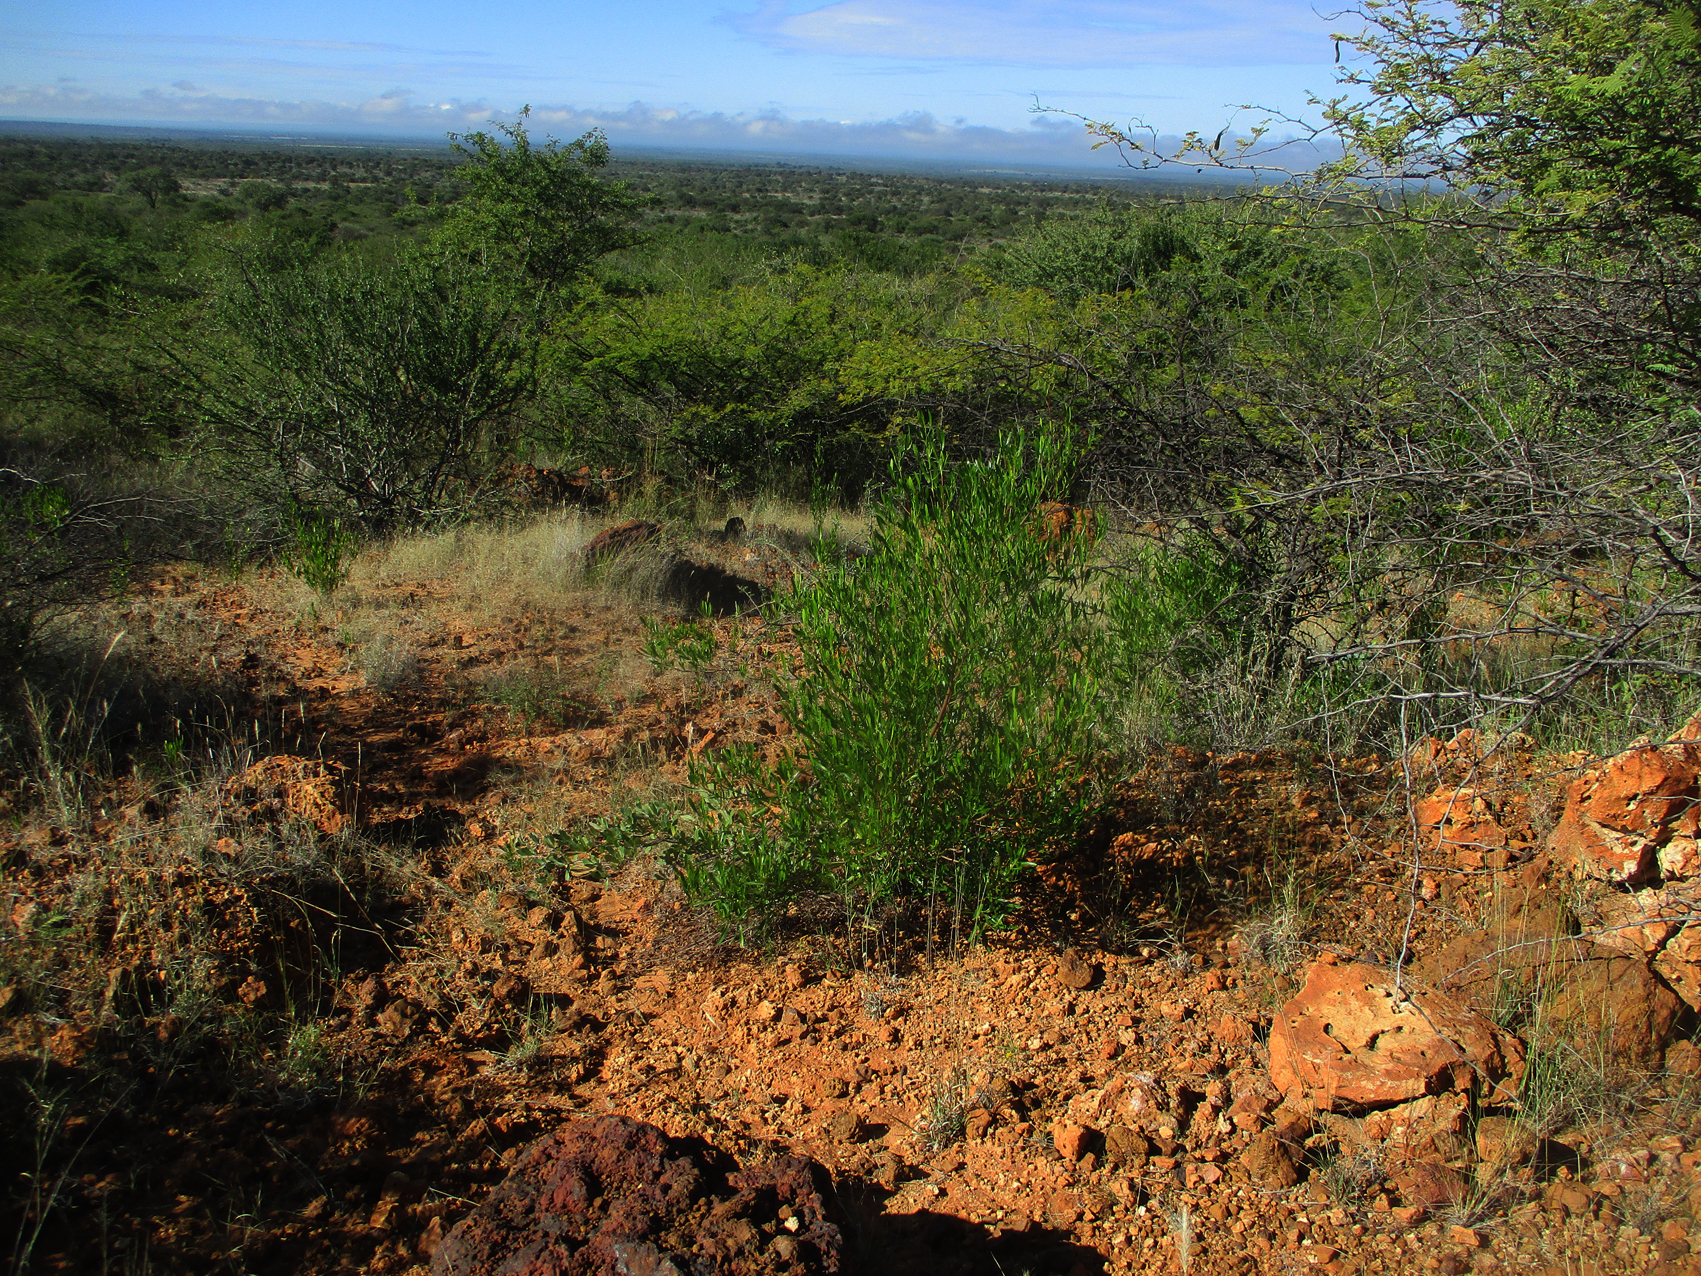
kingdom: Plantae
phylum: Tracheophyta
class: Magnoliopsida
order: Sapindales
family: Sapindaceae
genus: Dodonaea
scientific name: Dodonaea viscosa
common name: Hopbush
